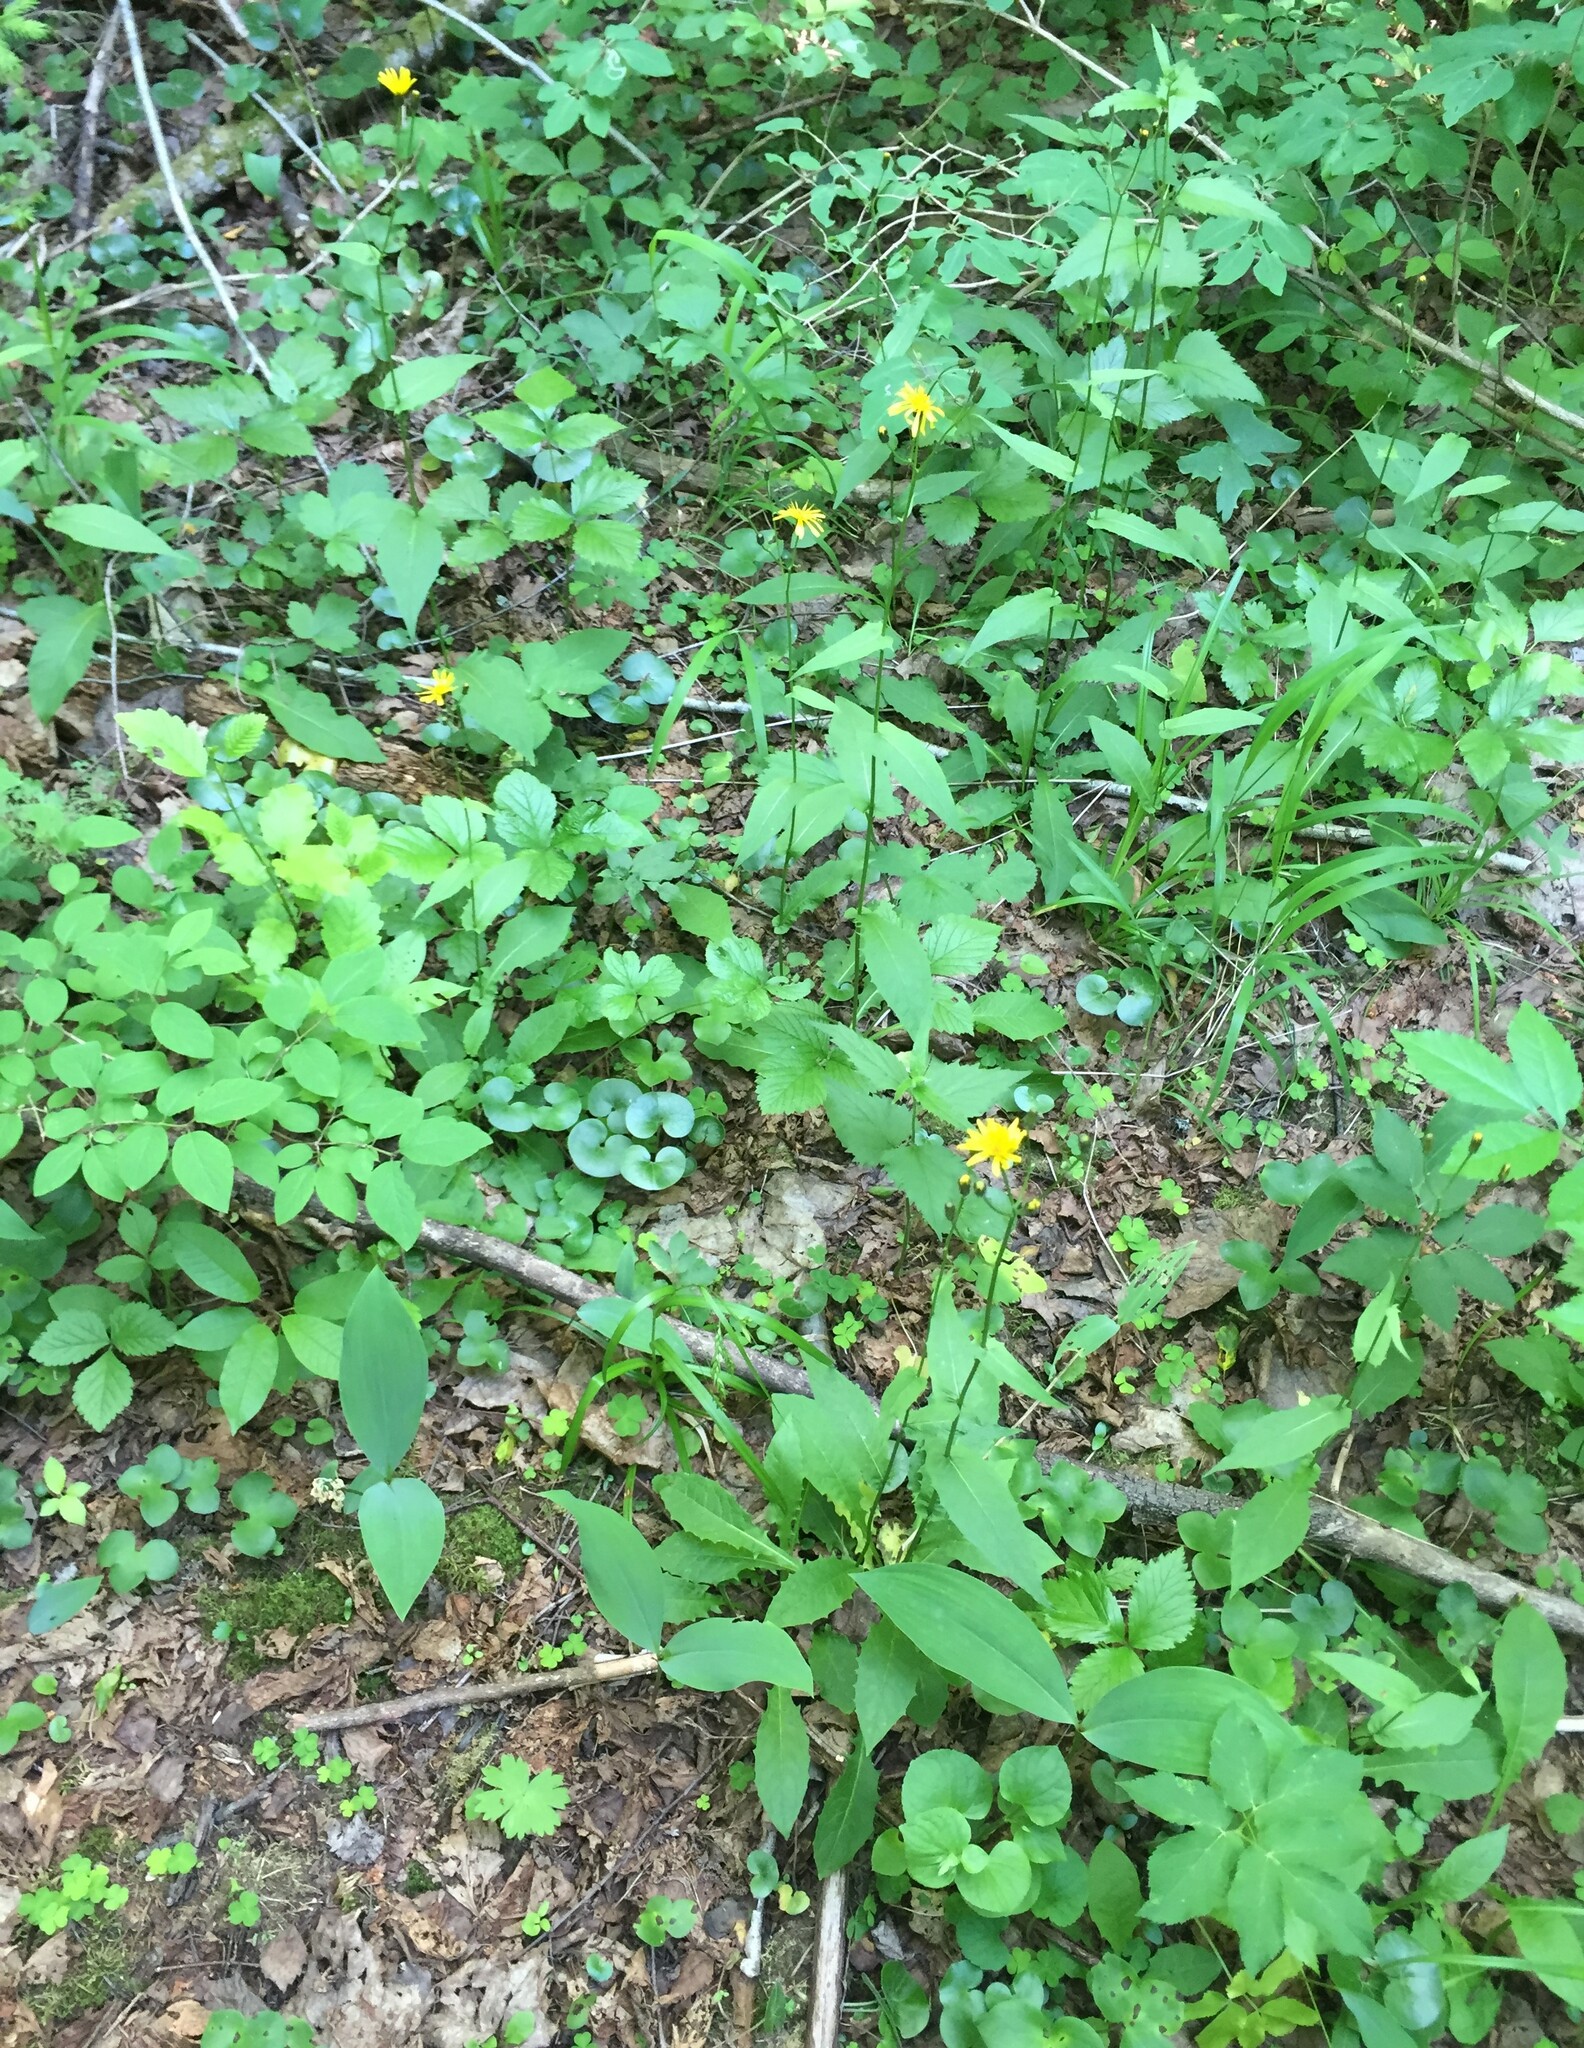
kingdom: Plantae
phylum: Tracheophyta
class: Magnoliopsida
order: Asterales
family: Asteraceae
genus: Crepis
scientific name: Crepis paludosa
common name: Marsh hawk's-beard
